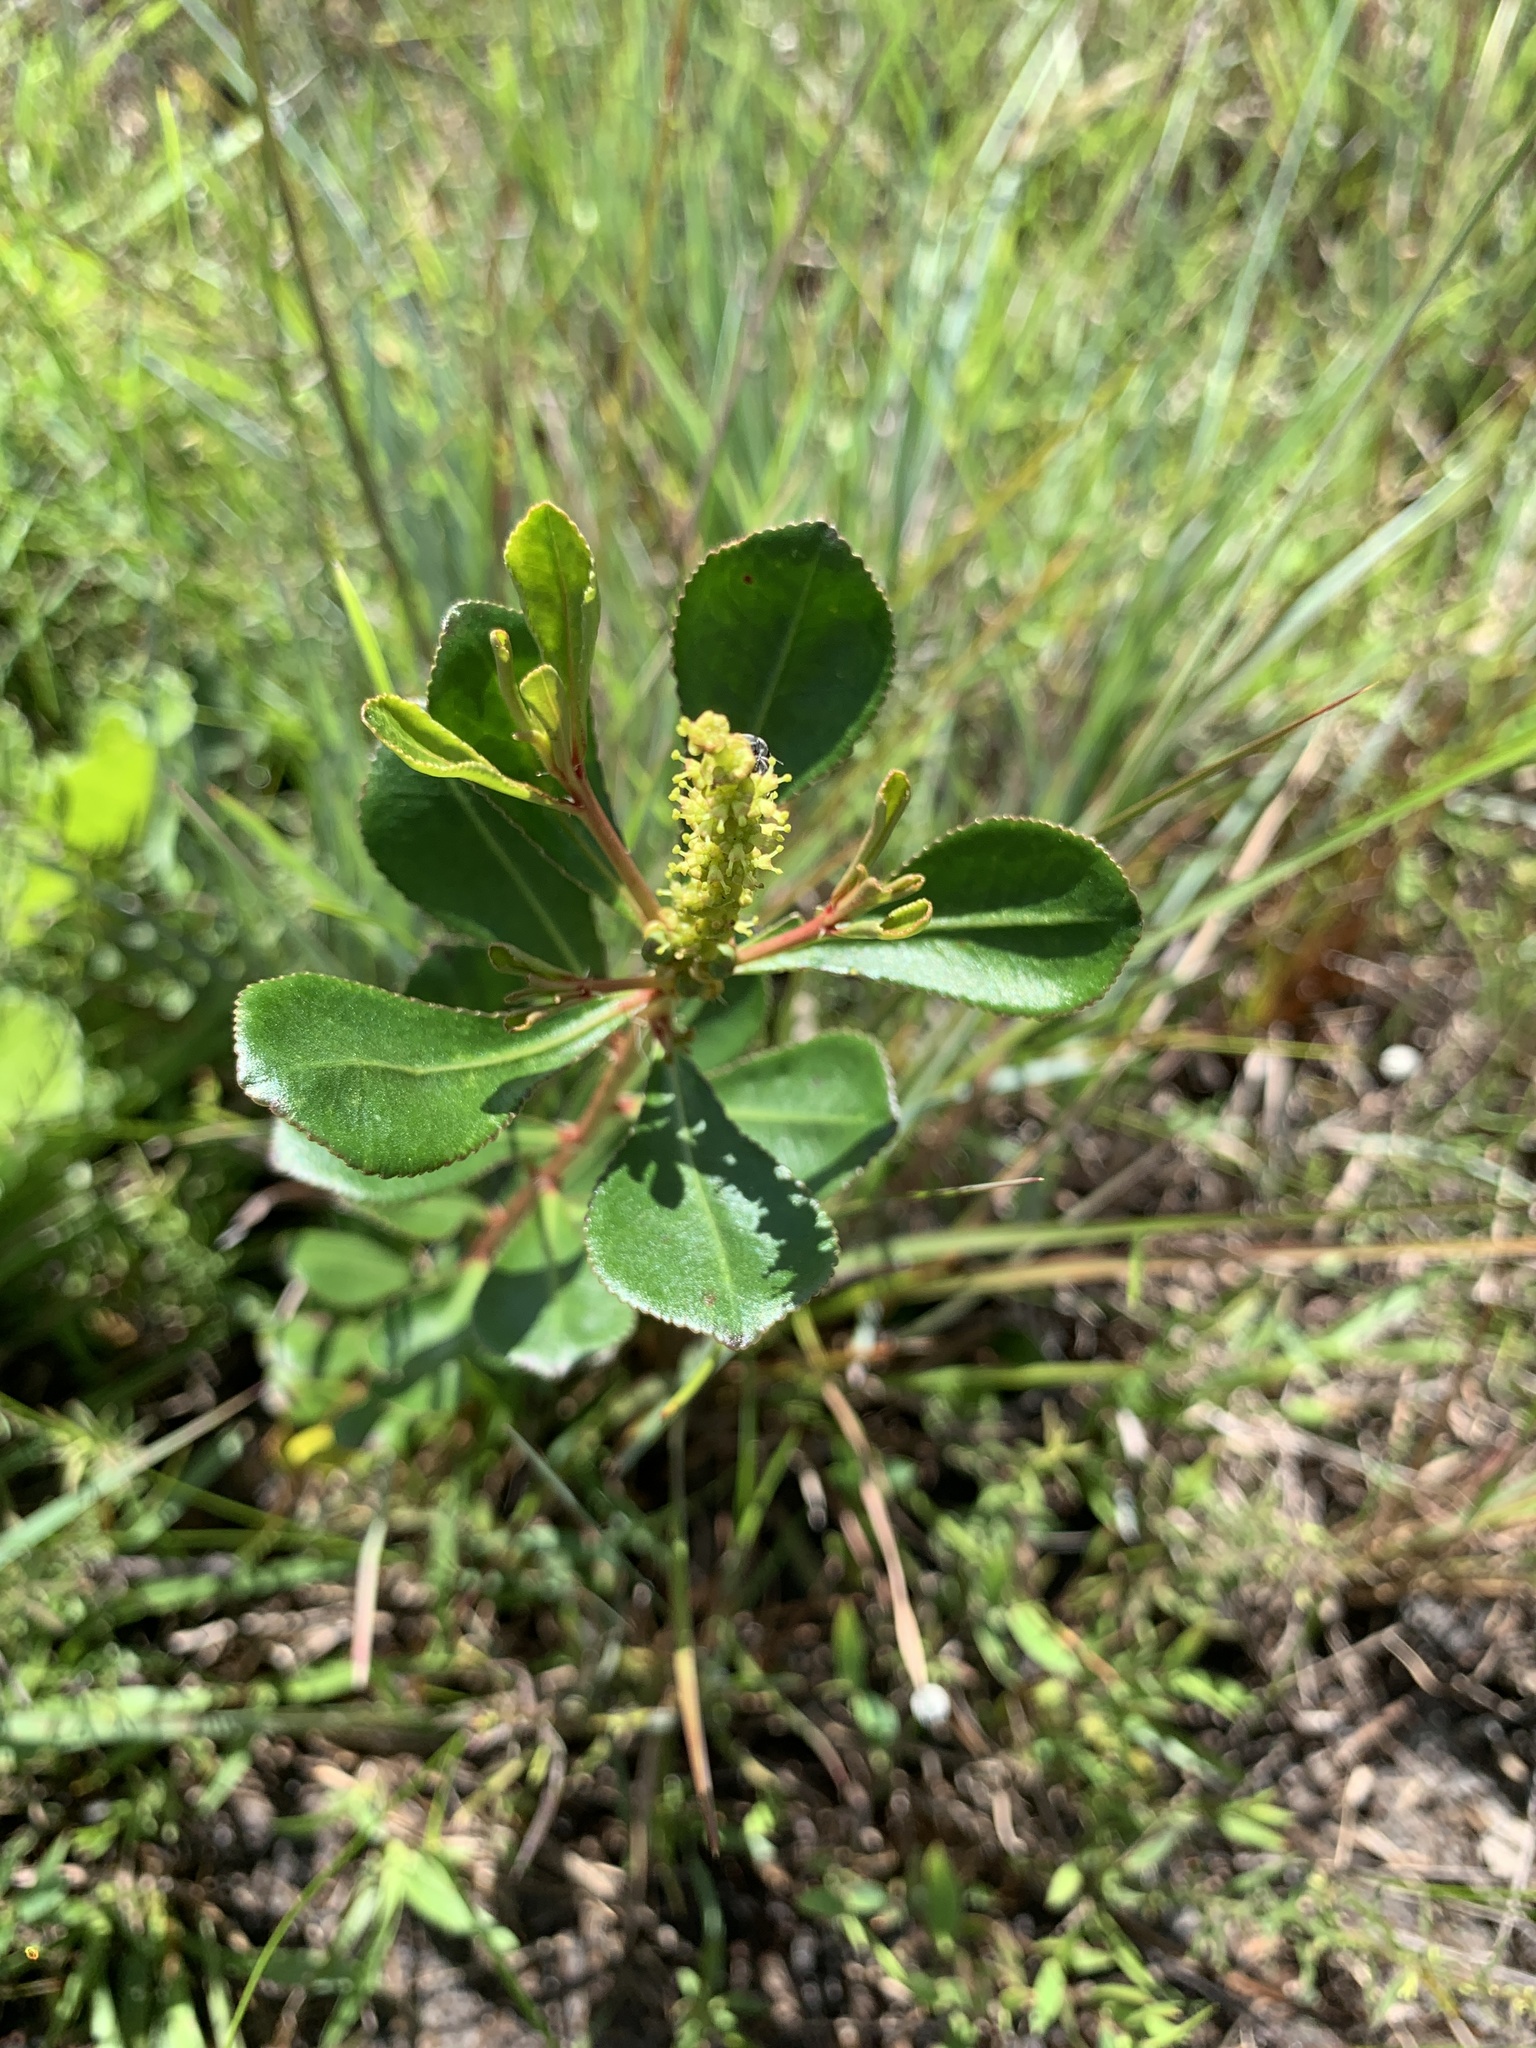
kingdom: Plantae
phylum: Tracheophyta
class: Magnoliopsida
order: Malpighiales
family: Euphorbiaceae
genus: Stillingia
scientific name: Stillingia sylvatica
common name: Queen's-delight
